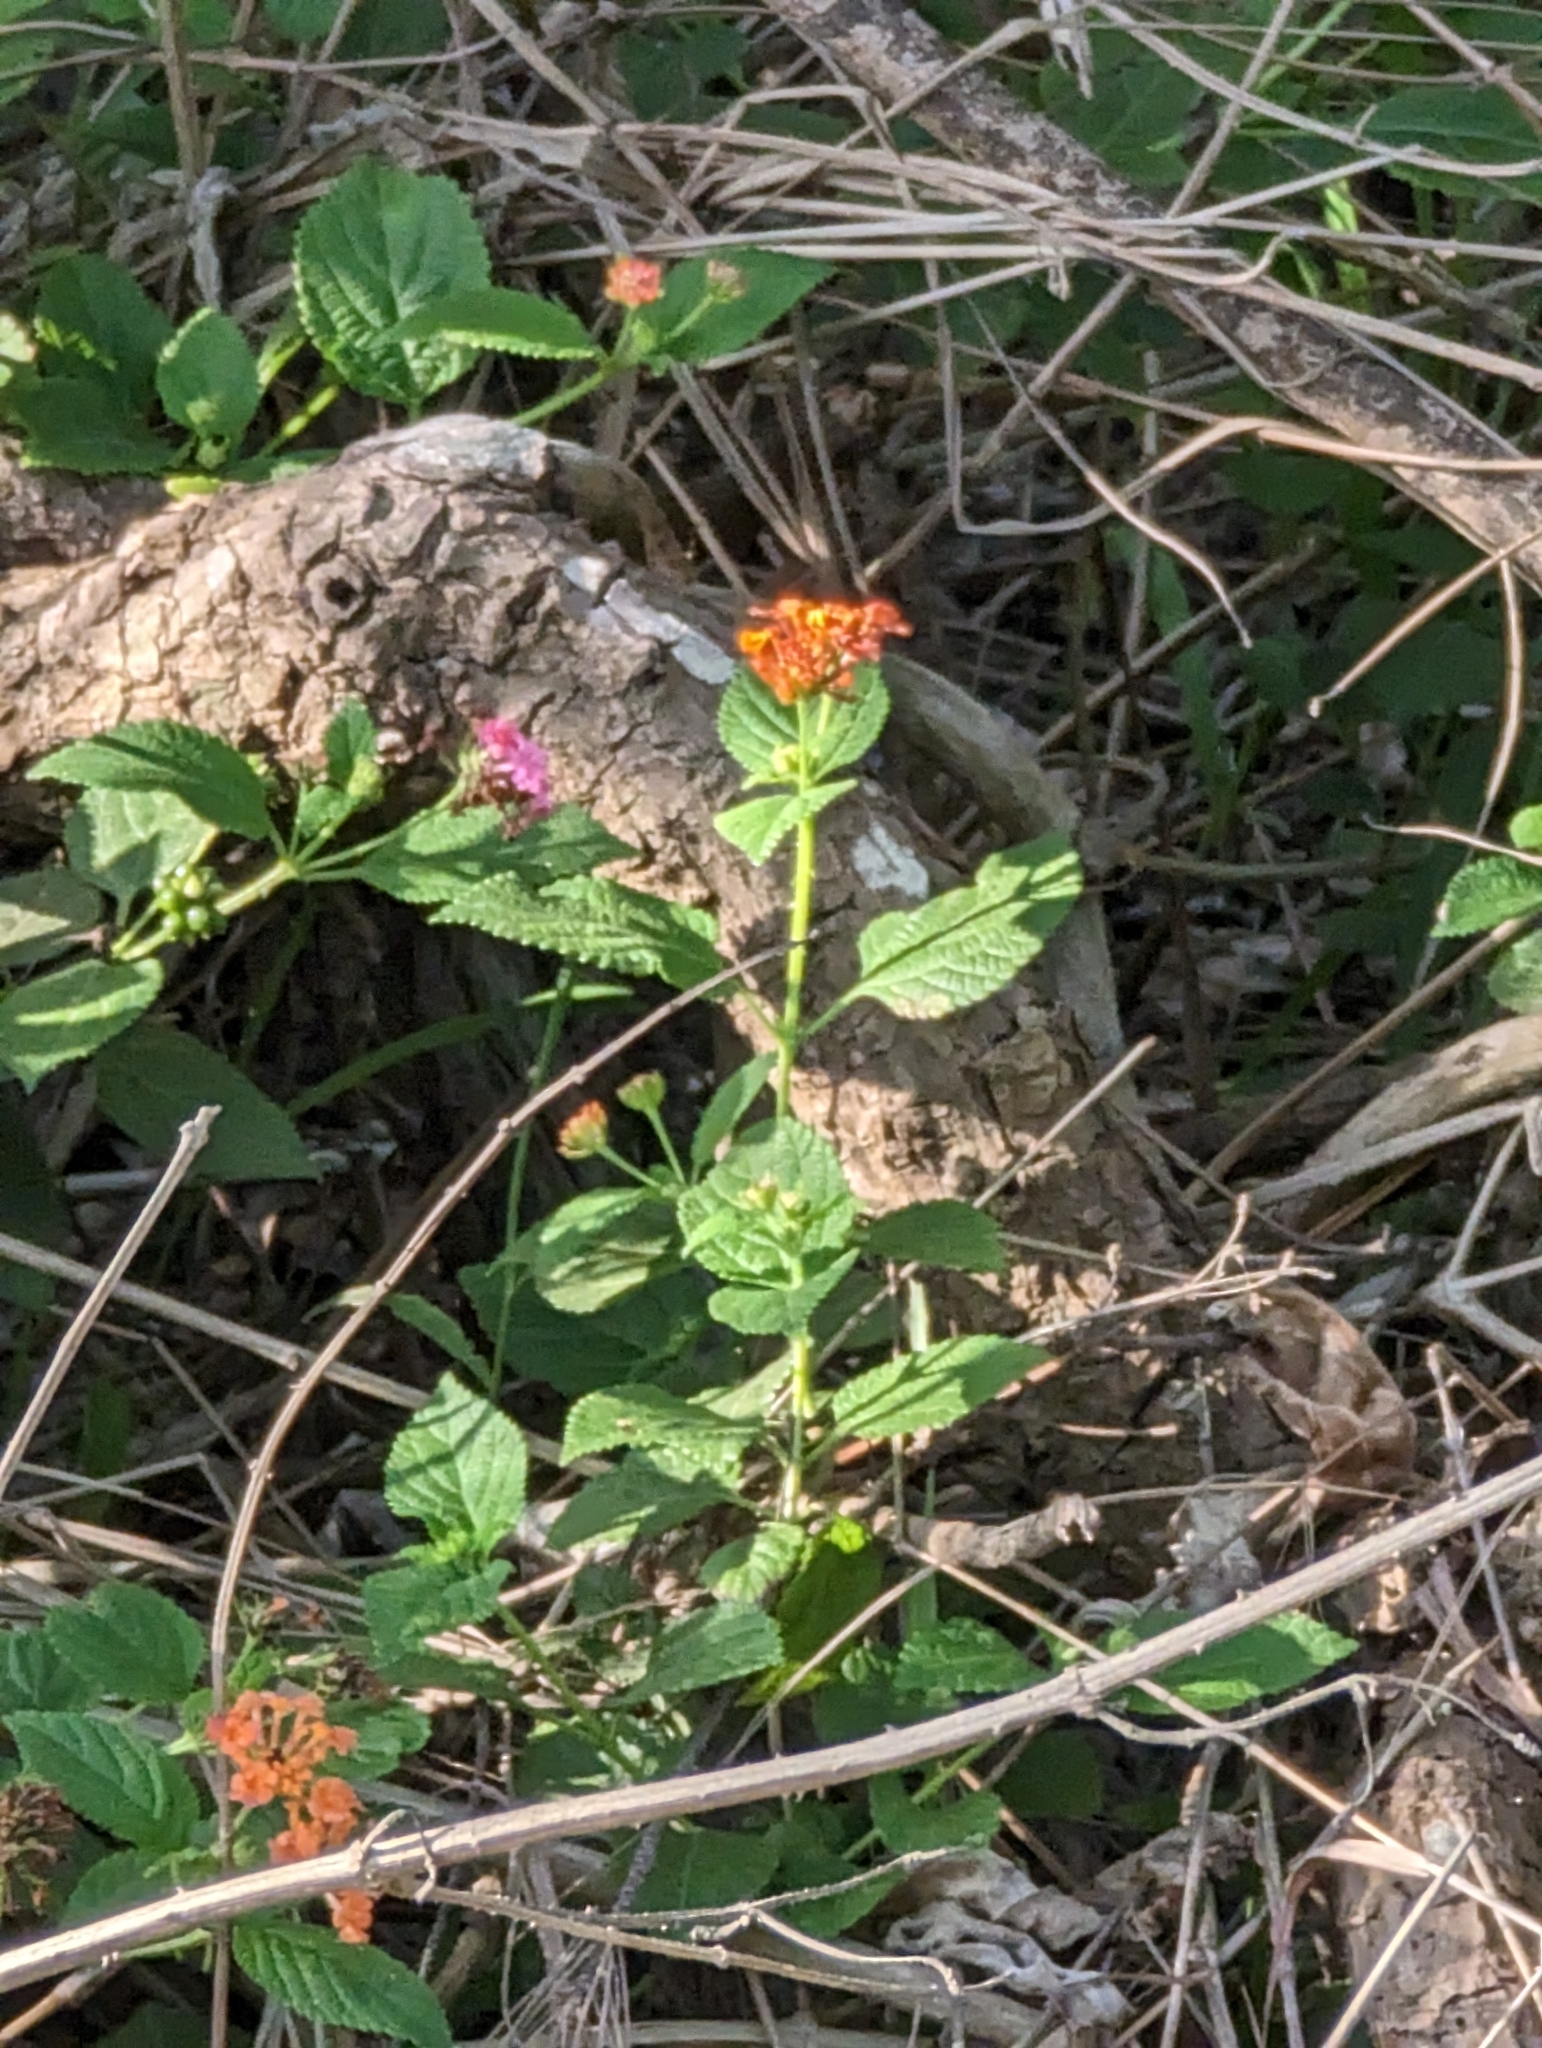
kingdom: Plantae
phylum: Tracheophyta
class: Magnoliopsida
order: Lamiales
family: Verbenaceae
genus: Lantana
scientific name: Lantana camara
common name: Lantana
